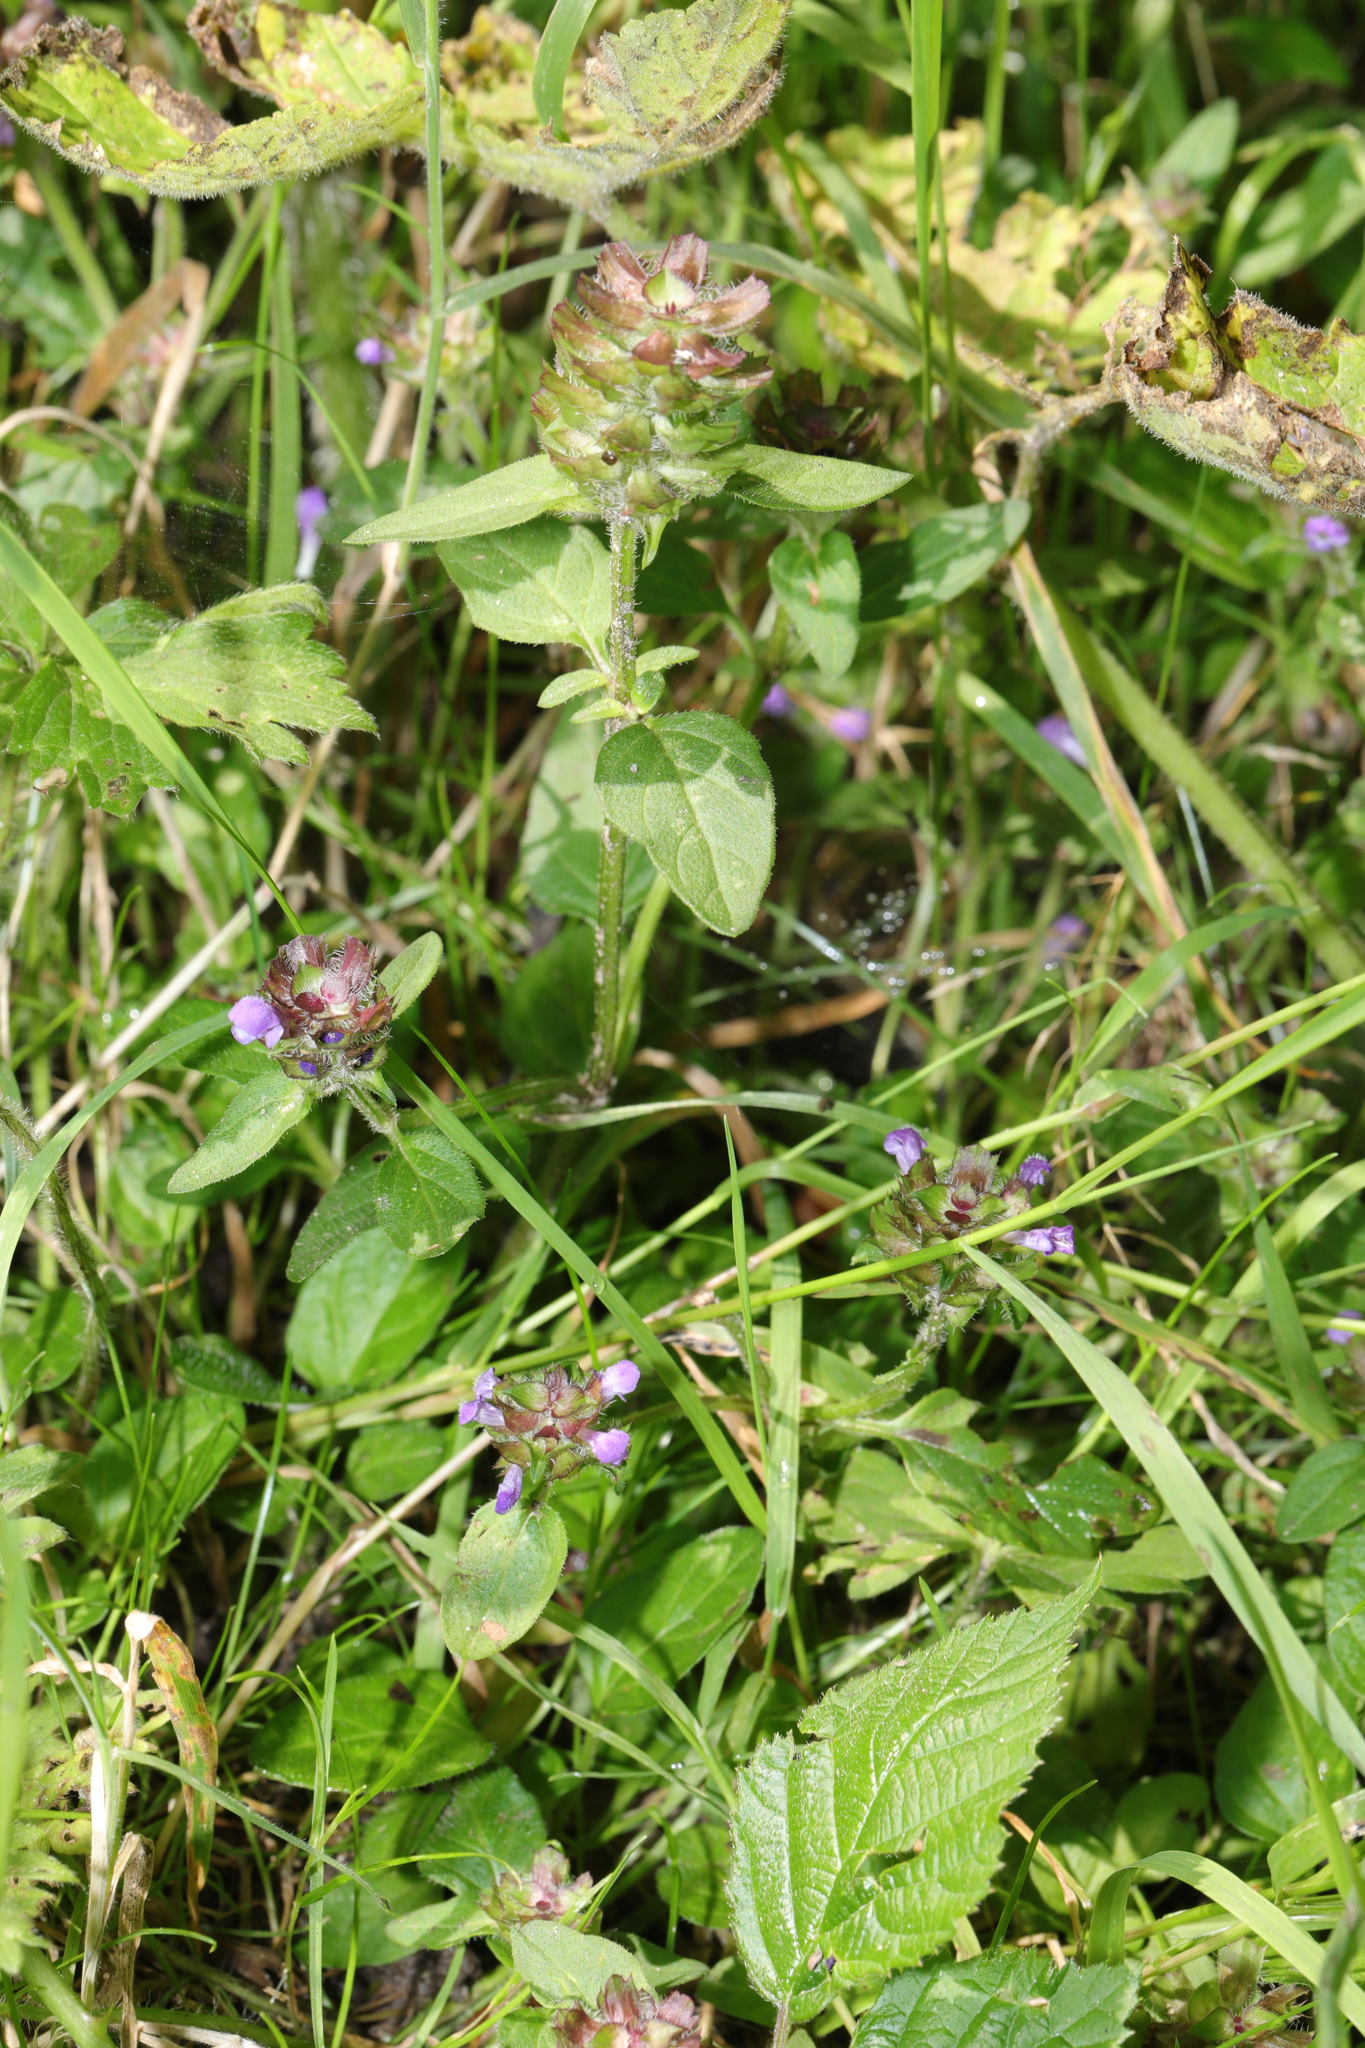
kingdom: Plantae
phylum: Tracheophyta
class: Magnoliopsida
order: Lamiales
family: Lamiaceae
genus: Prunella
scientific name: Prunella vulgaris
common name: Heal-all
